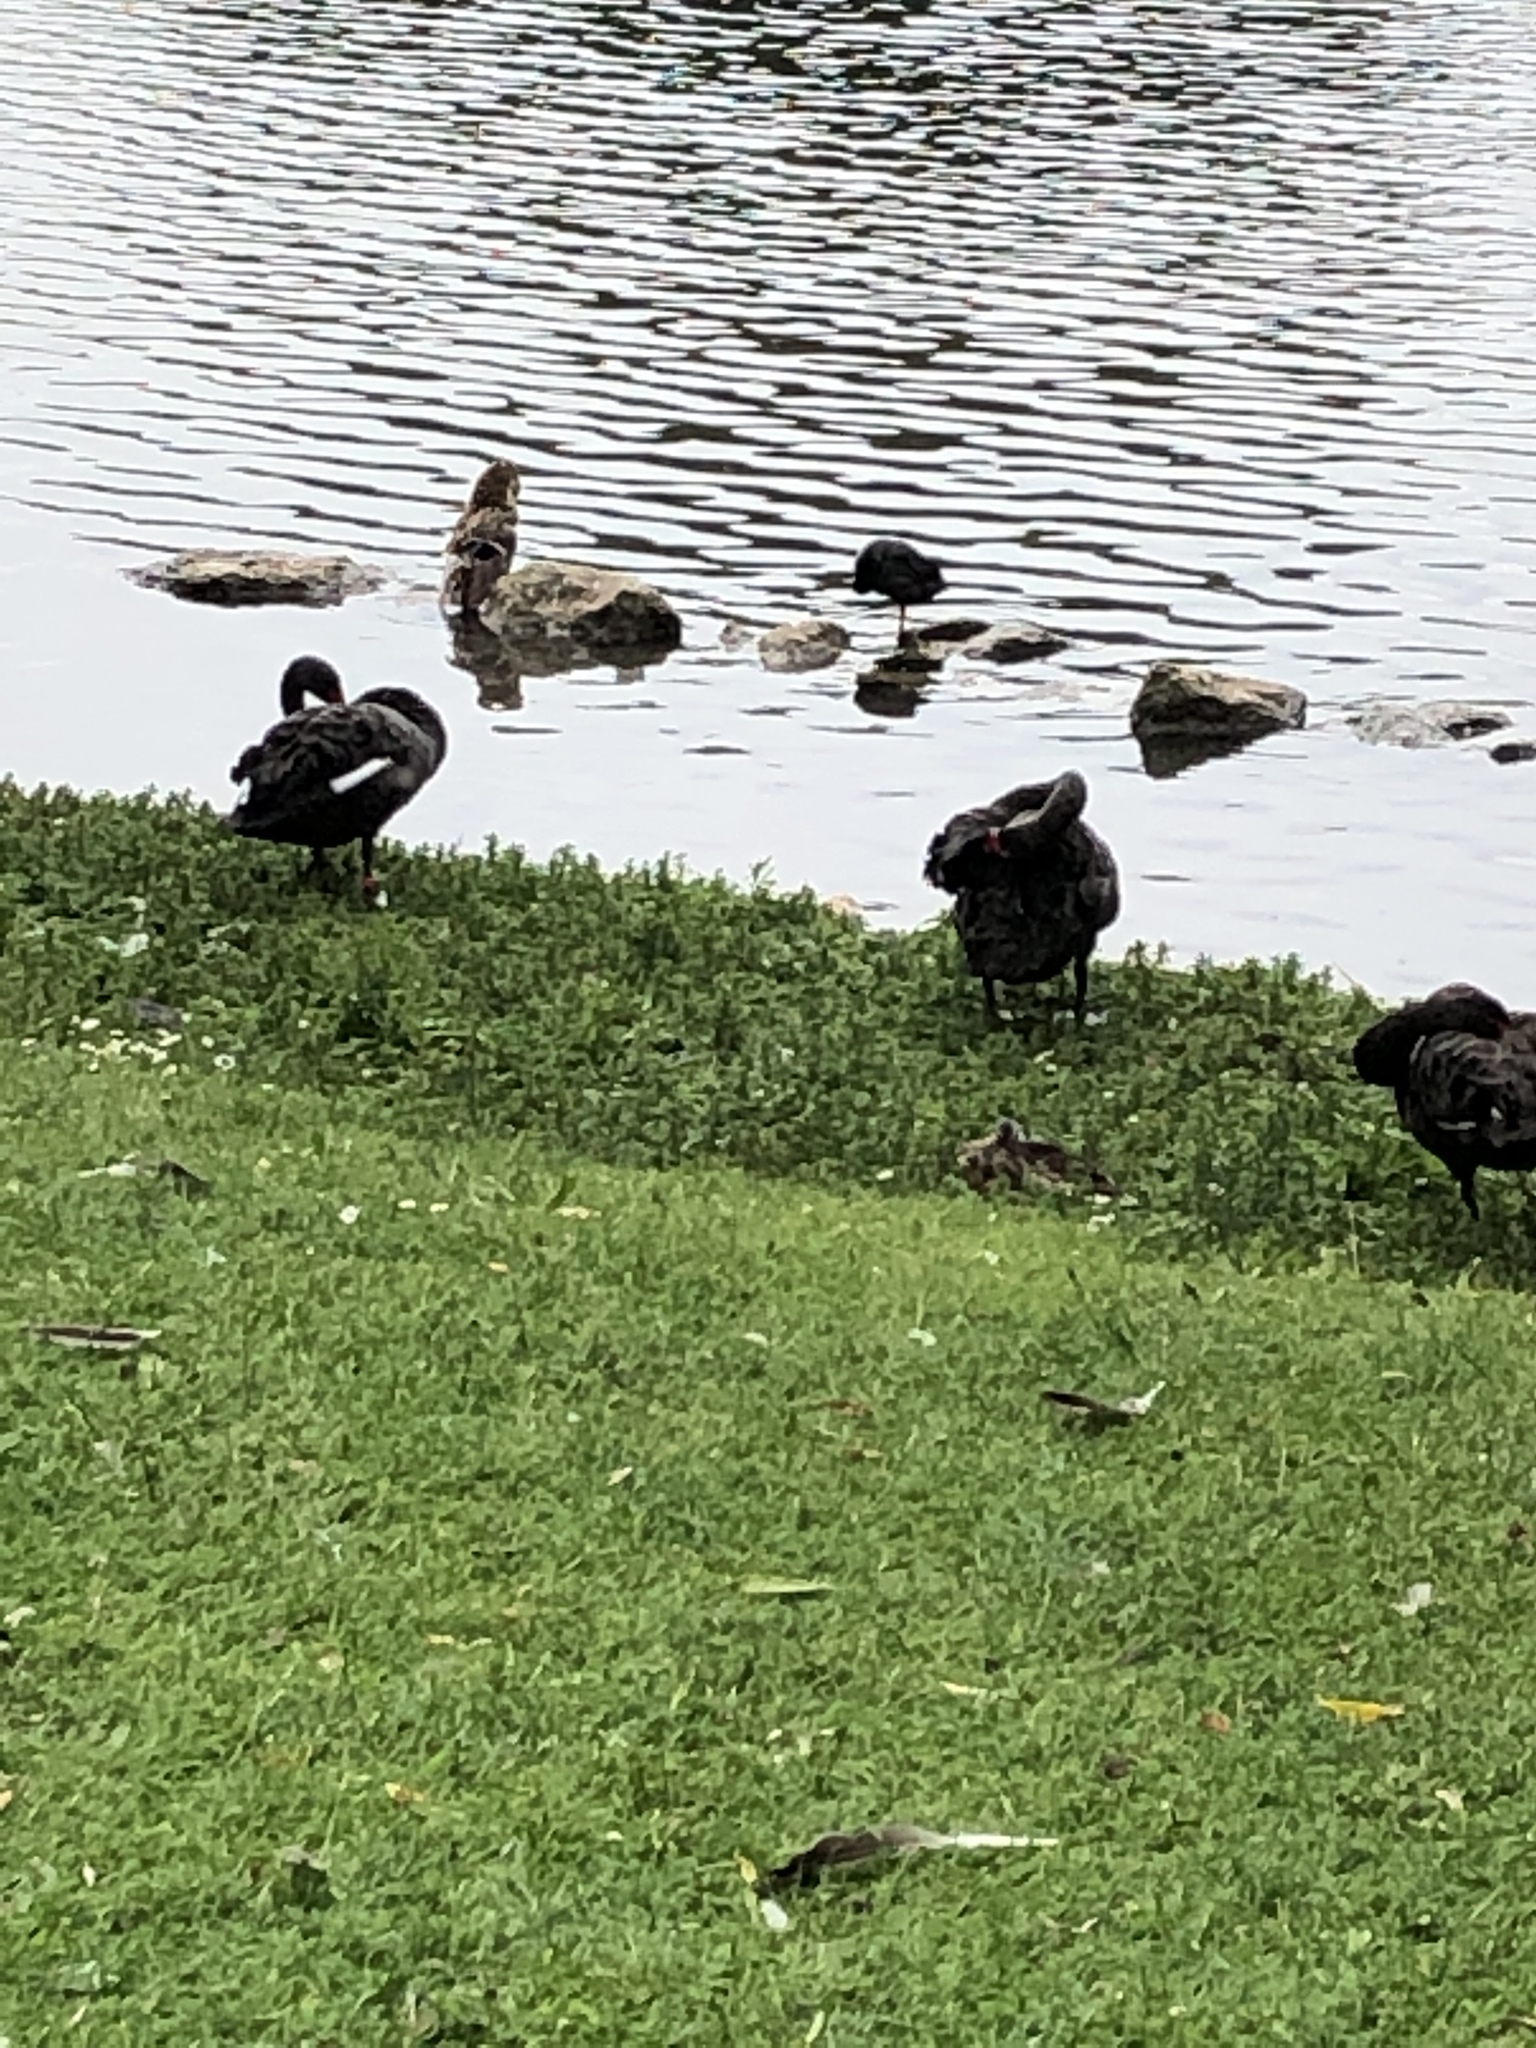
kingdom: Animalia
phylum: Chordata
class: Aves
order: Anseriformes
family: Anatidae
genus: Cygnus
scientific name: Cygnus atratus
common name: Black swan
